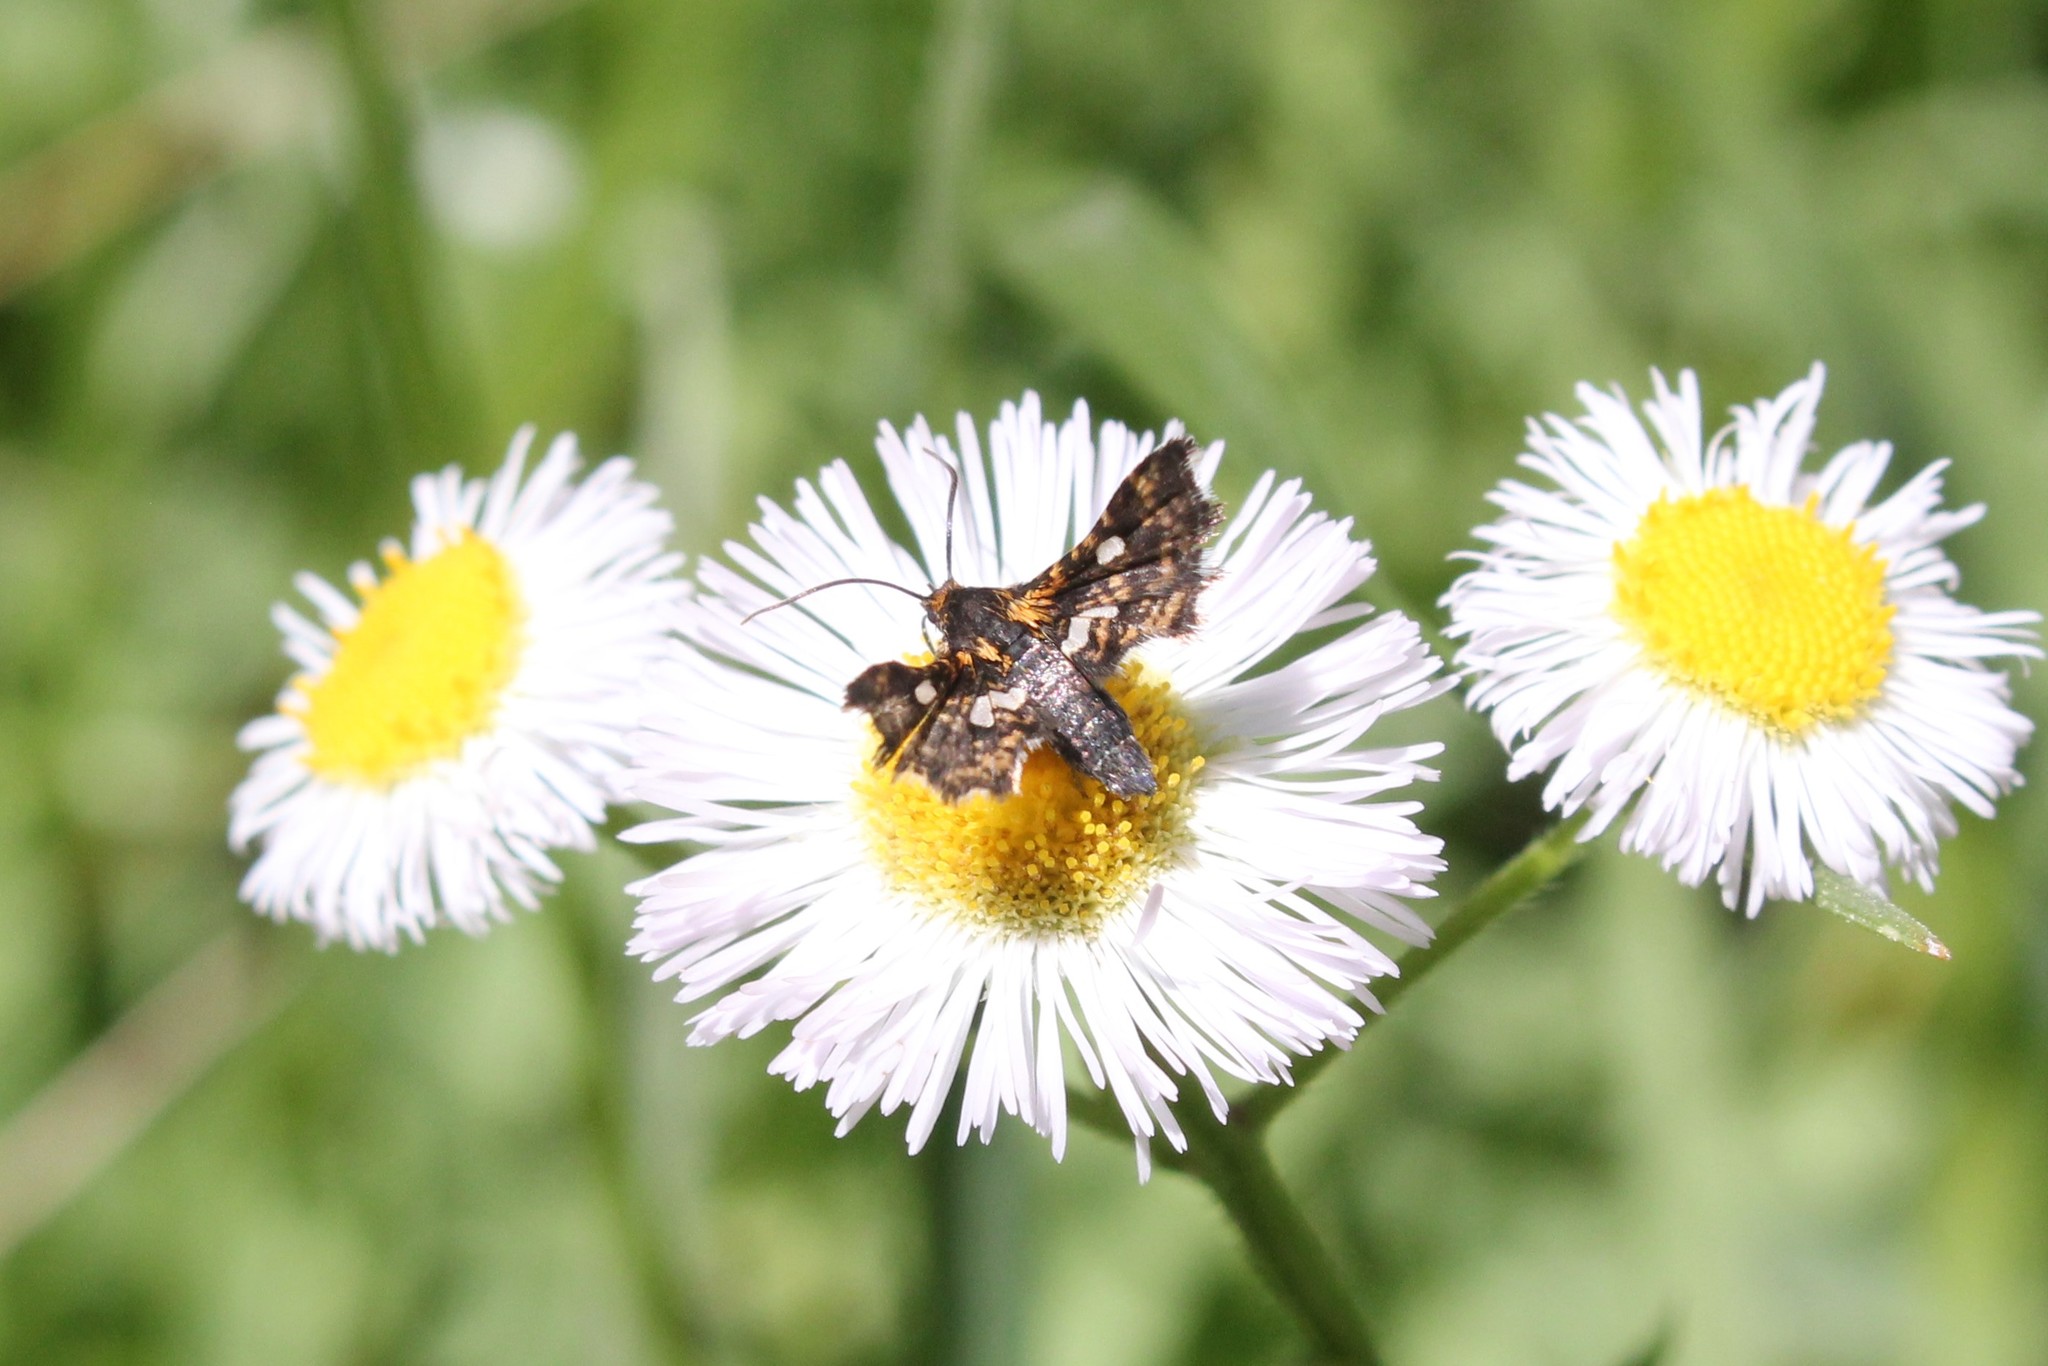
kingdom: Animalia
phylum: Arthropoda
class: Insecta
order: Lepidoptera
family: Thyrididae
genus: Thyris
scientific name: Thyris maculata
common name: Spotted thyris moth
